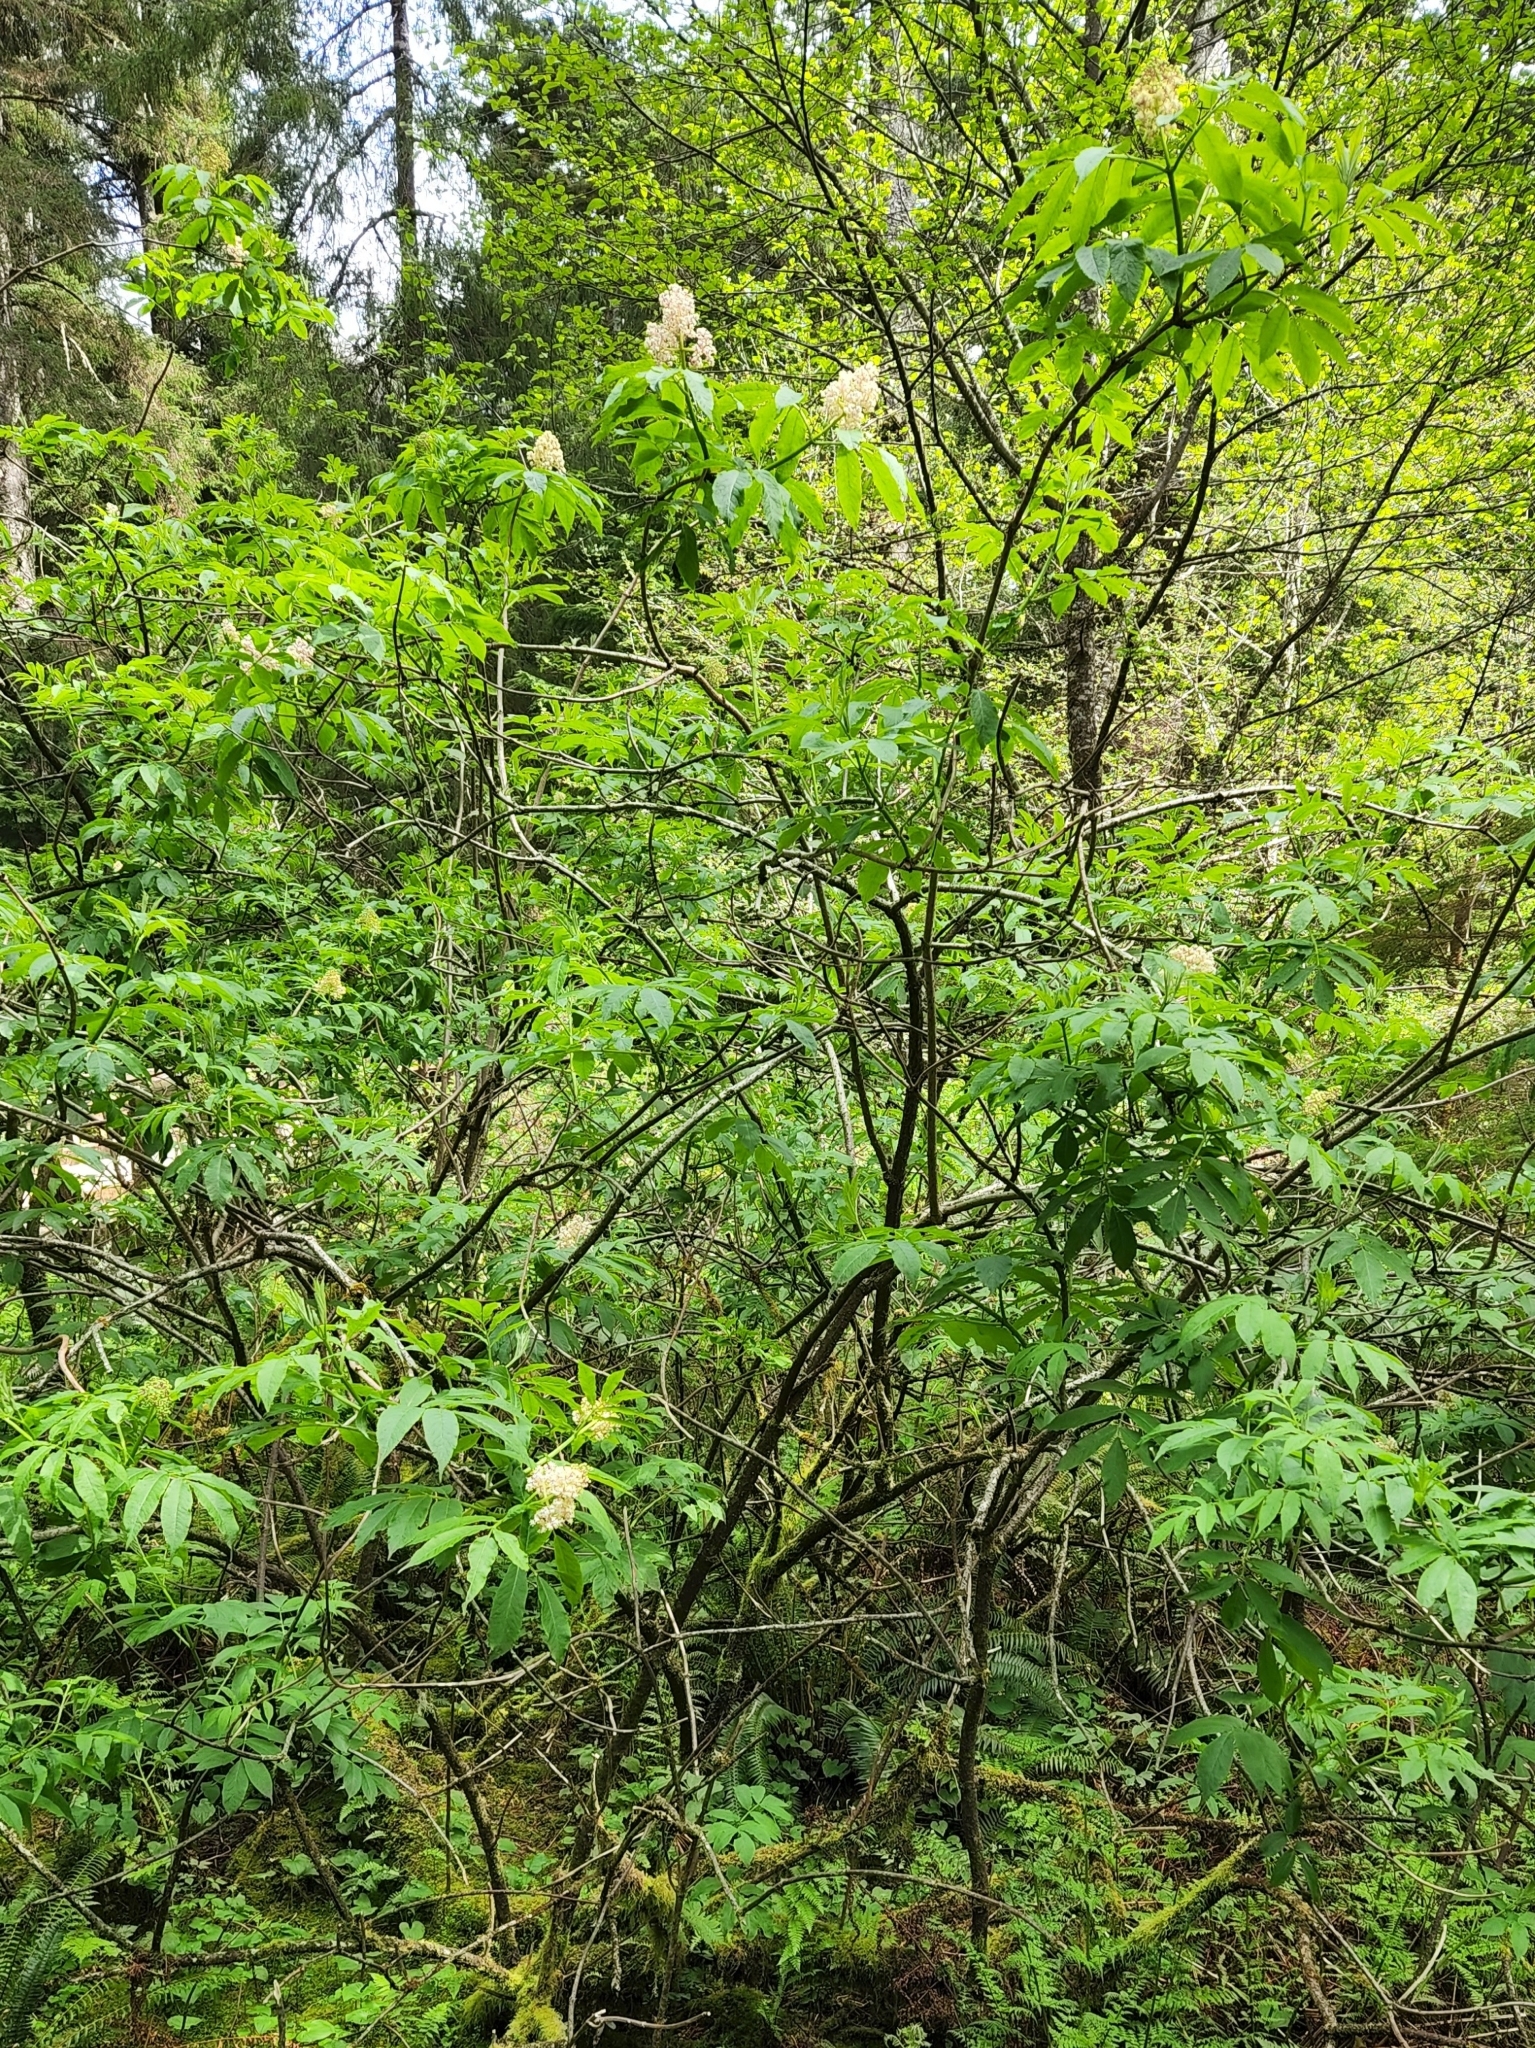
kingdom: Plantae
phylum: Tracheophyta
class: Magnoliopsida
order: Dipsacales
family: Viburnaceae
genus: Sambucus
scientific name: Sambucus racemosa
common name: Red-berried elder
